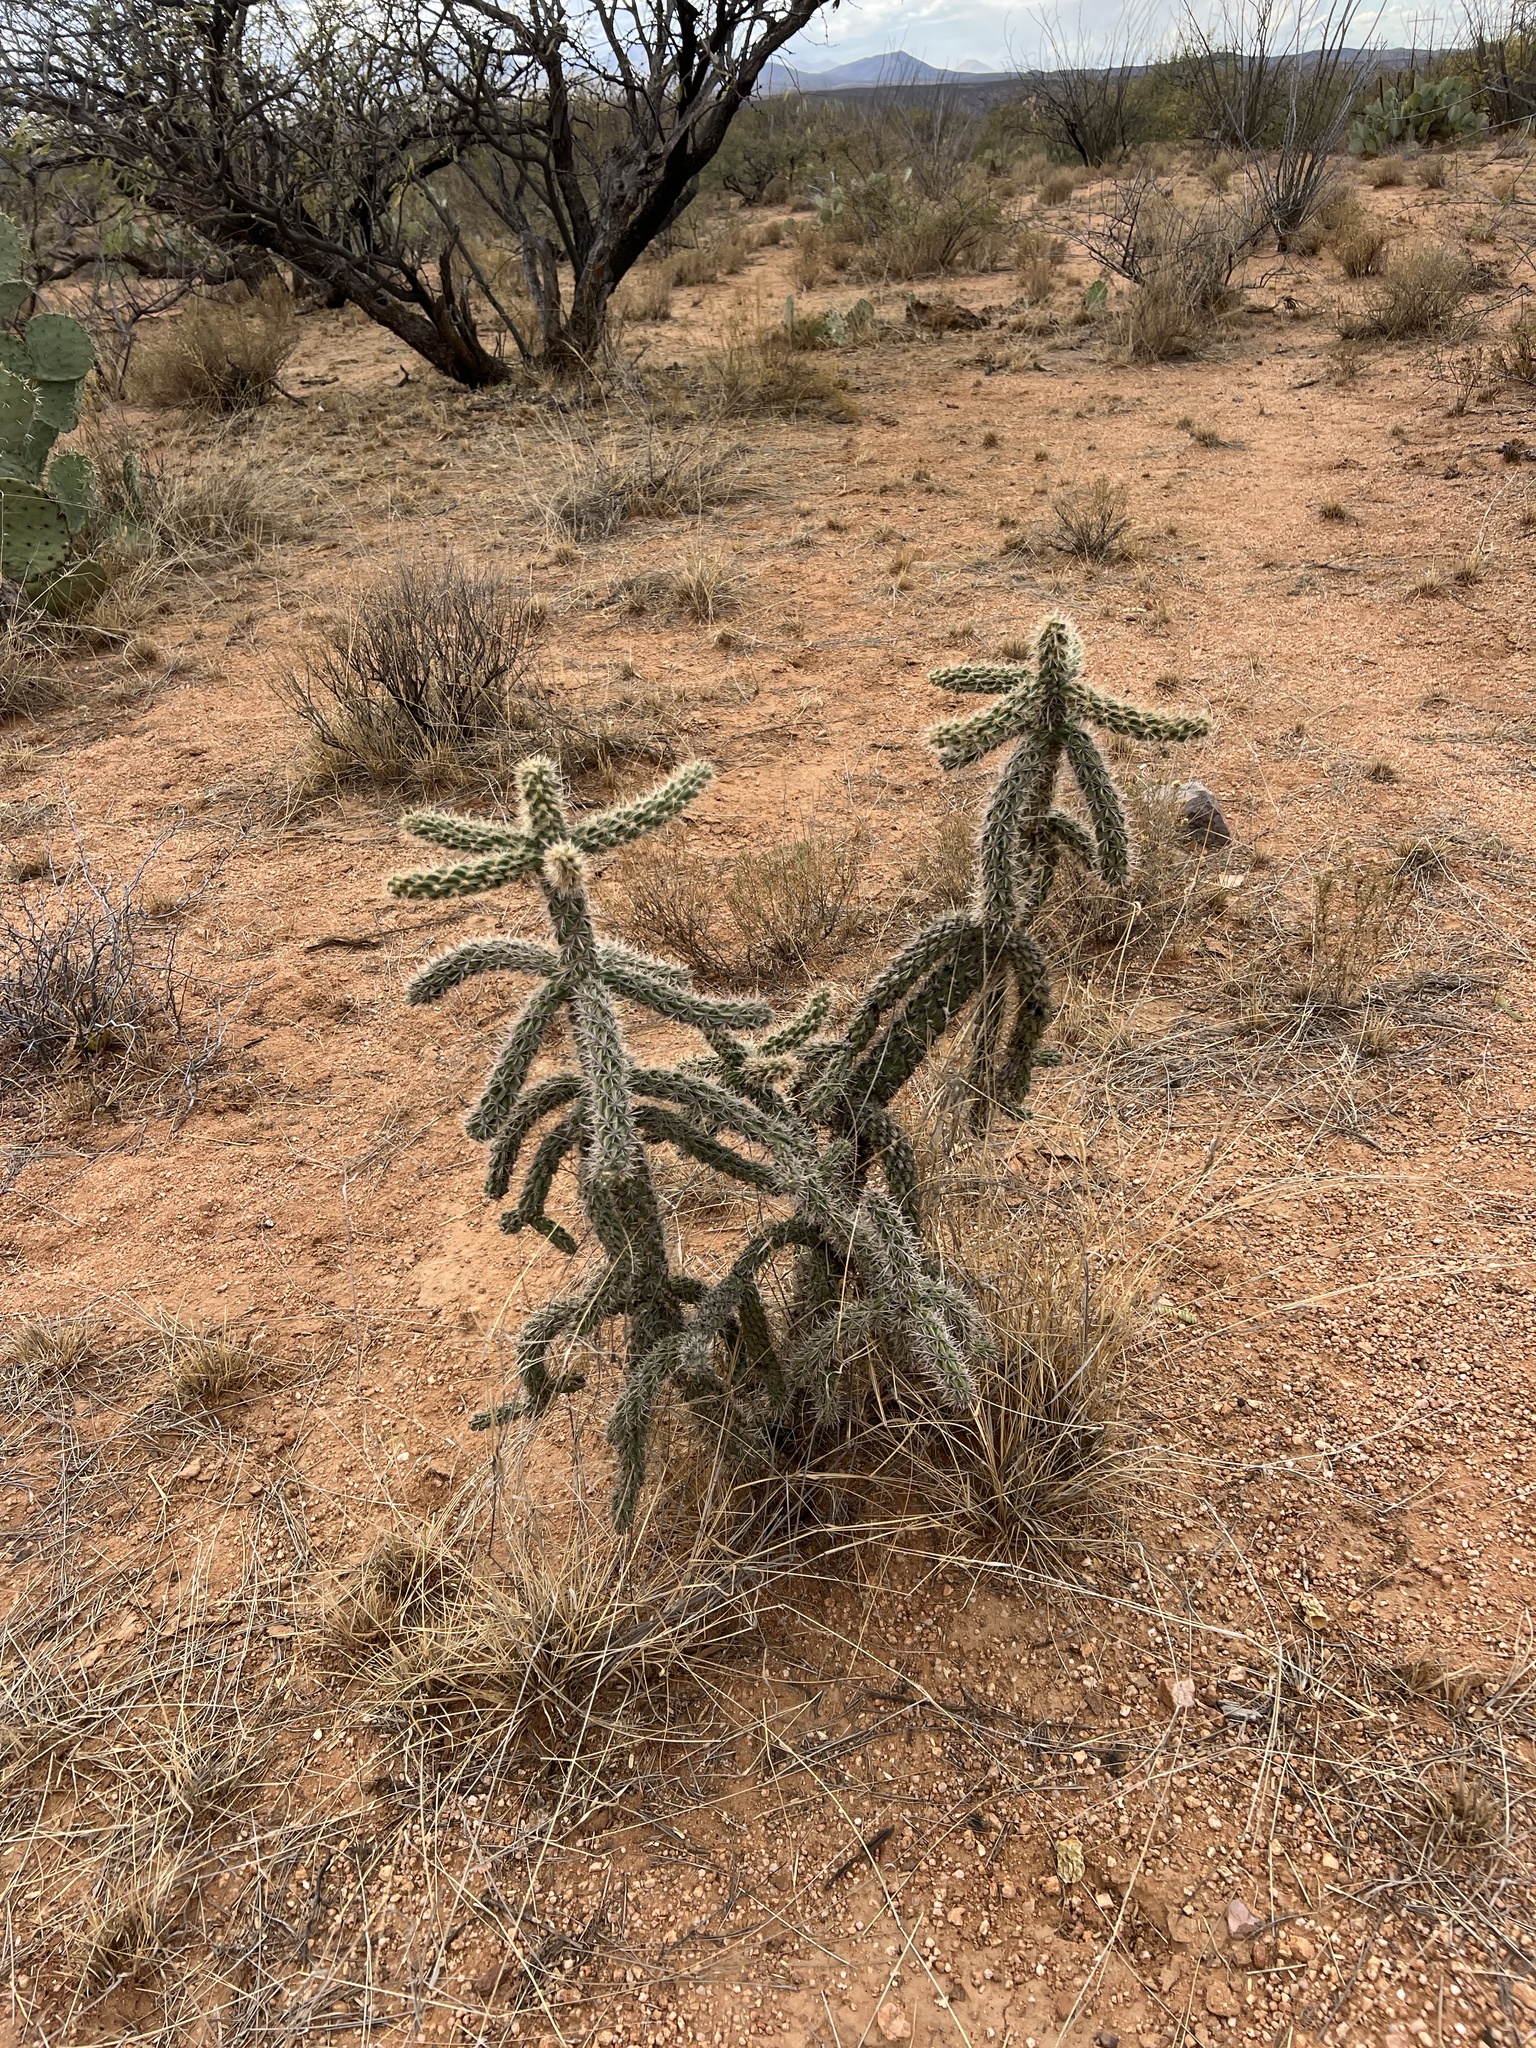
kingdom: Plantae
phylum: Tracheophyta
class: Magnoliopsida
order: Caryophyllales
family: Cactaceae
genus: Cylindropuntia
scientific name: Cylindropuntia imbricata
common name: Candelabrum cactus
